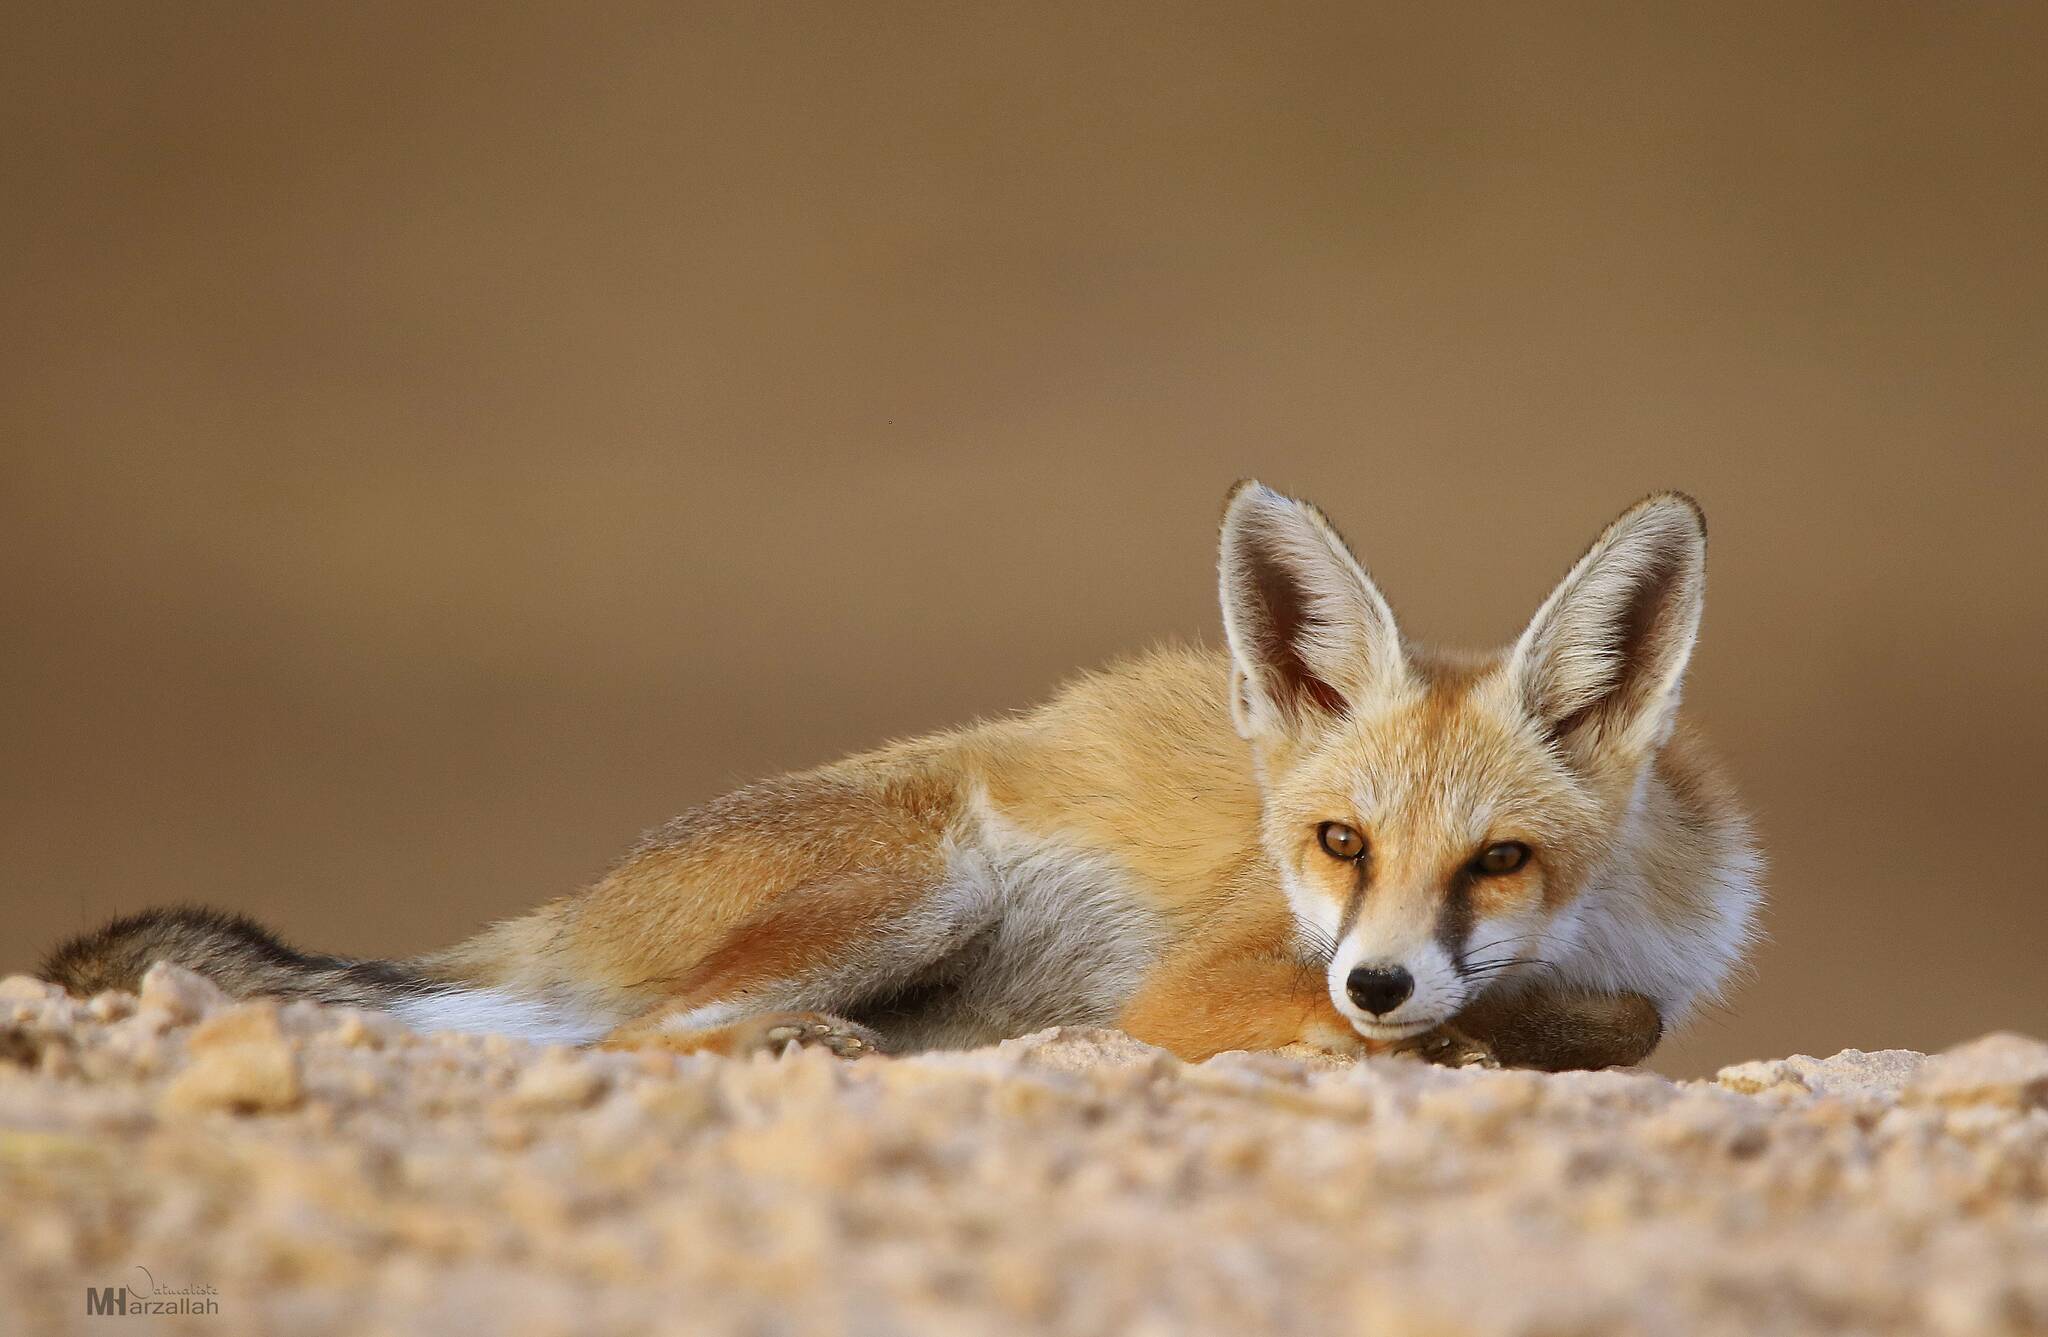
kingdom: Animalia
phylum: Chordata
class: Mammalia
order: Carnivora
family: Canidae
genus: Vulpes
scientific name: Vulpes vulpes
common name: Red fox
